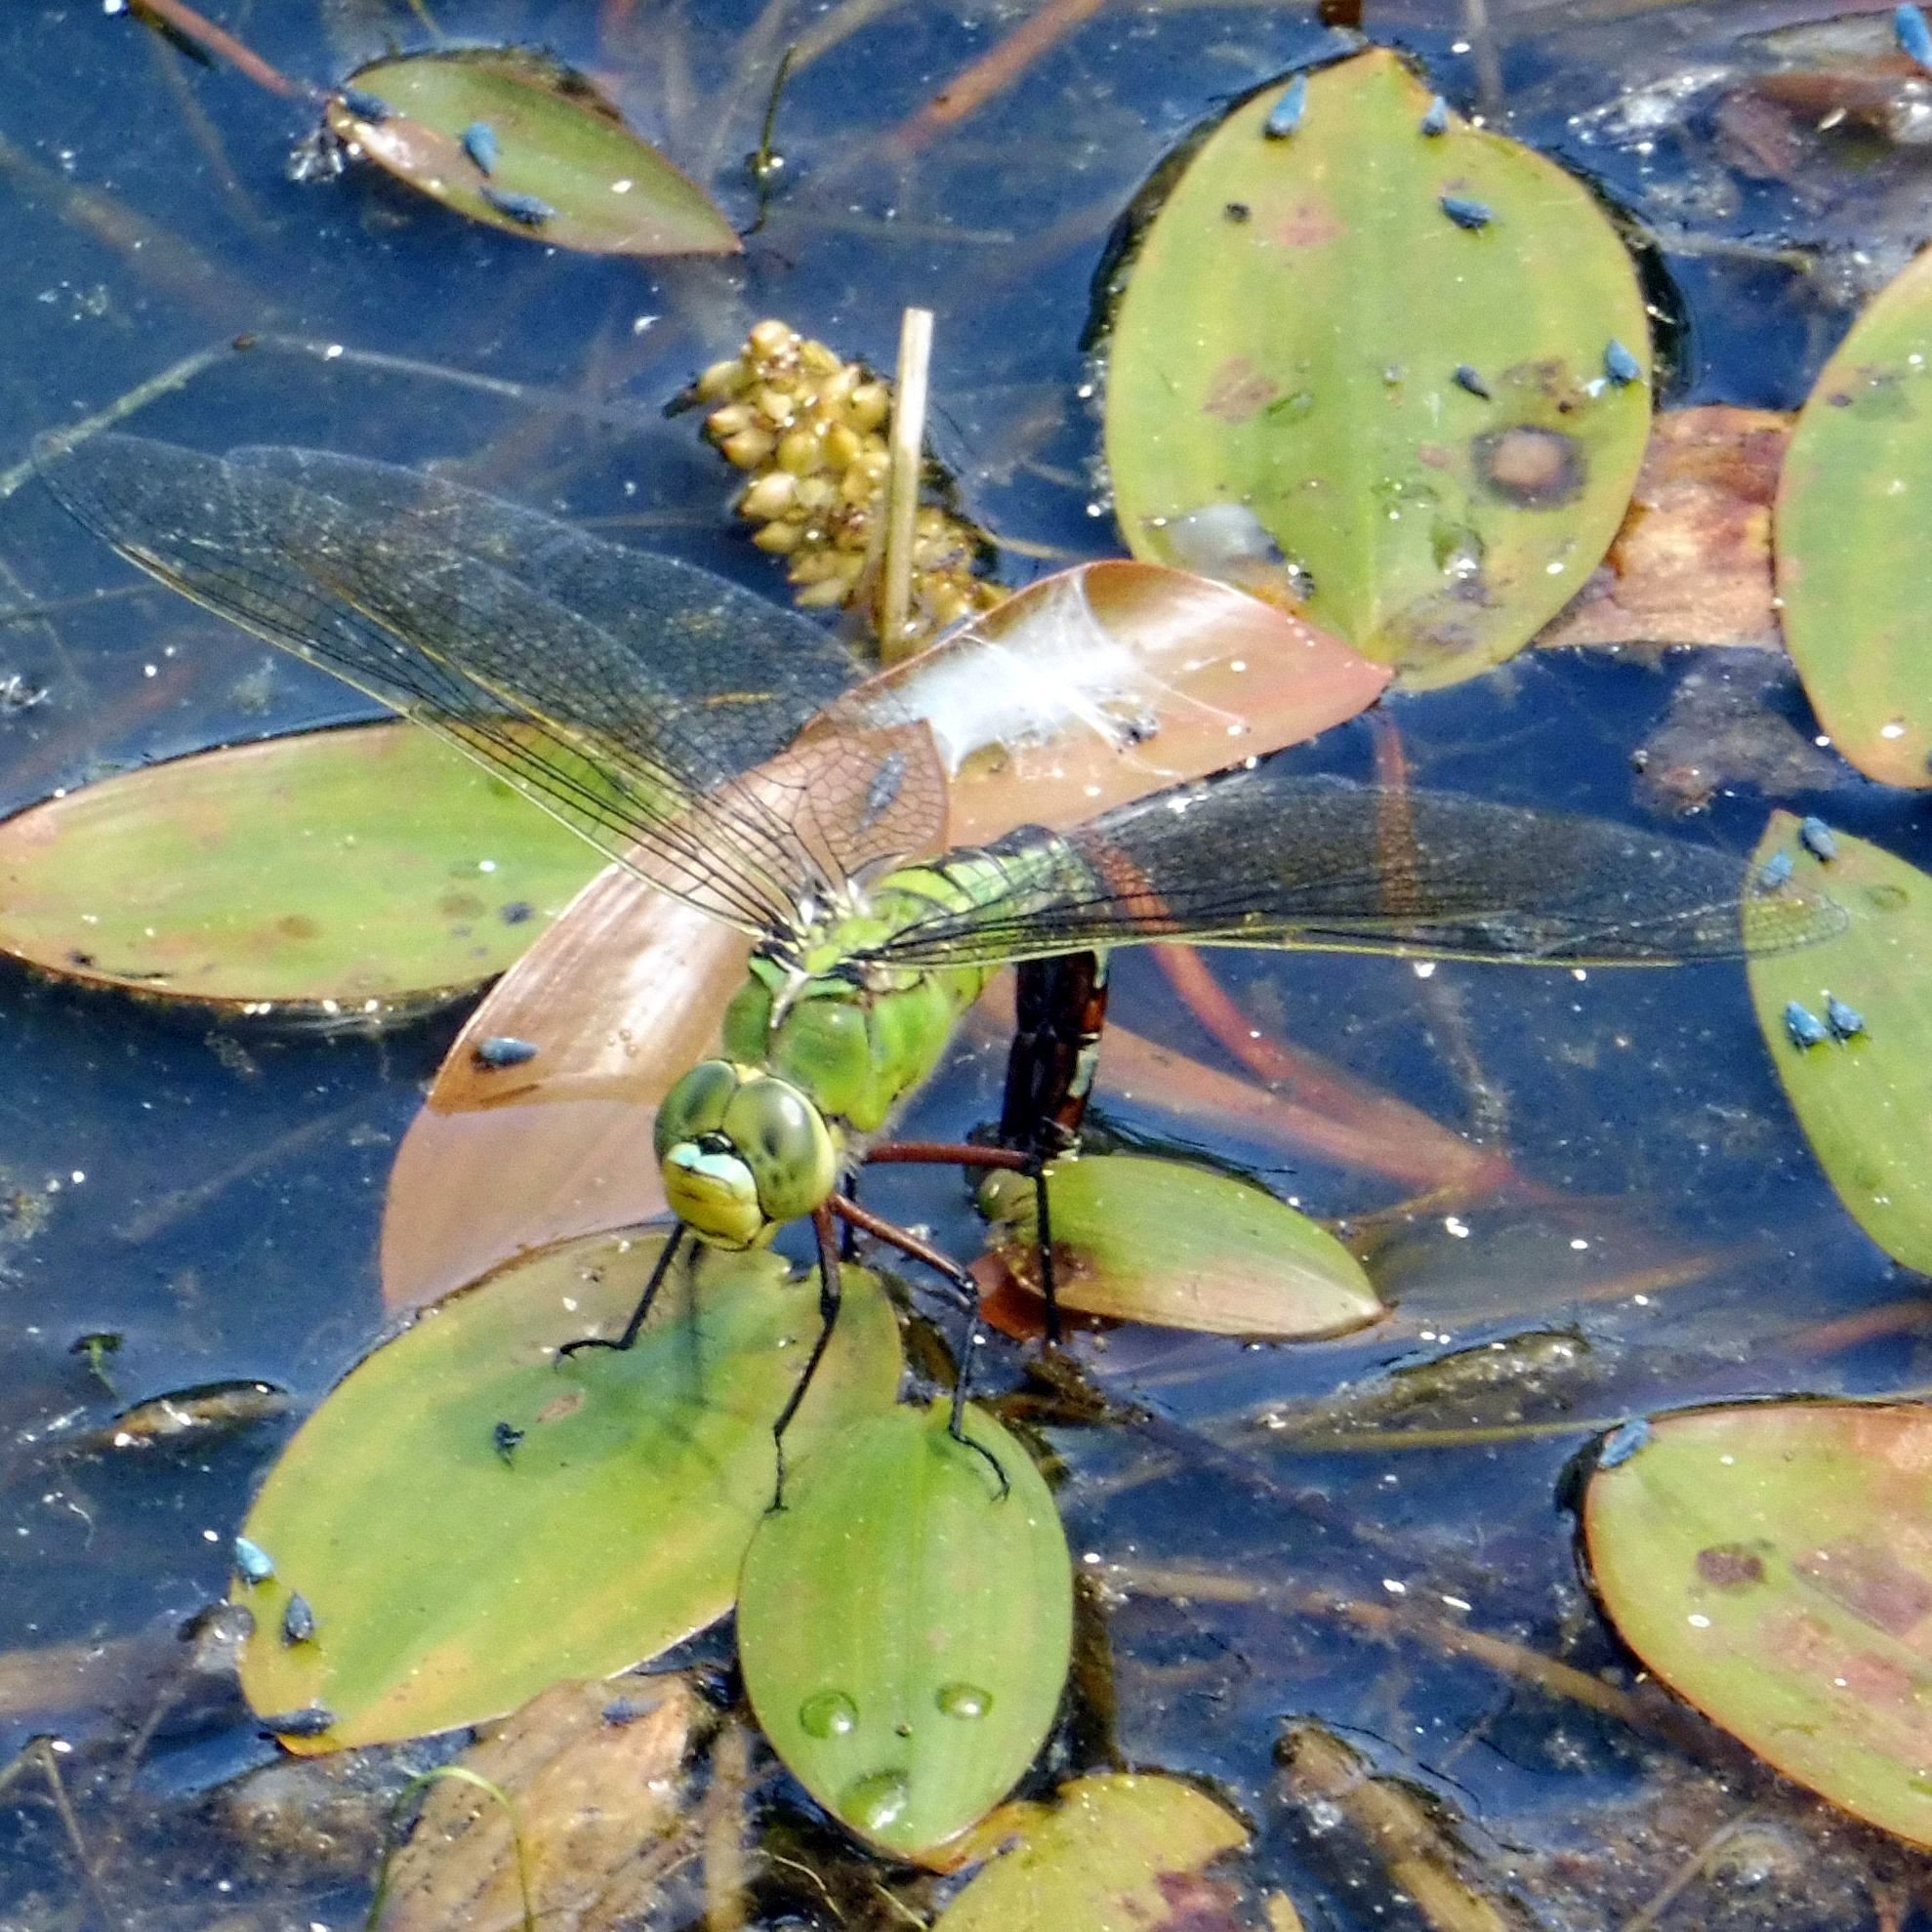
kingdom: Animalia
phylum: Arthropoda
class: Insecta
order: Odonata
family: Aeshnidae
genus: Anax
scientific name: Anax imperator
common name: Emperor dragonfly
